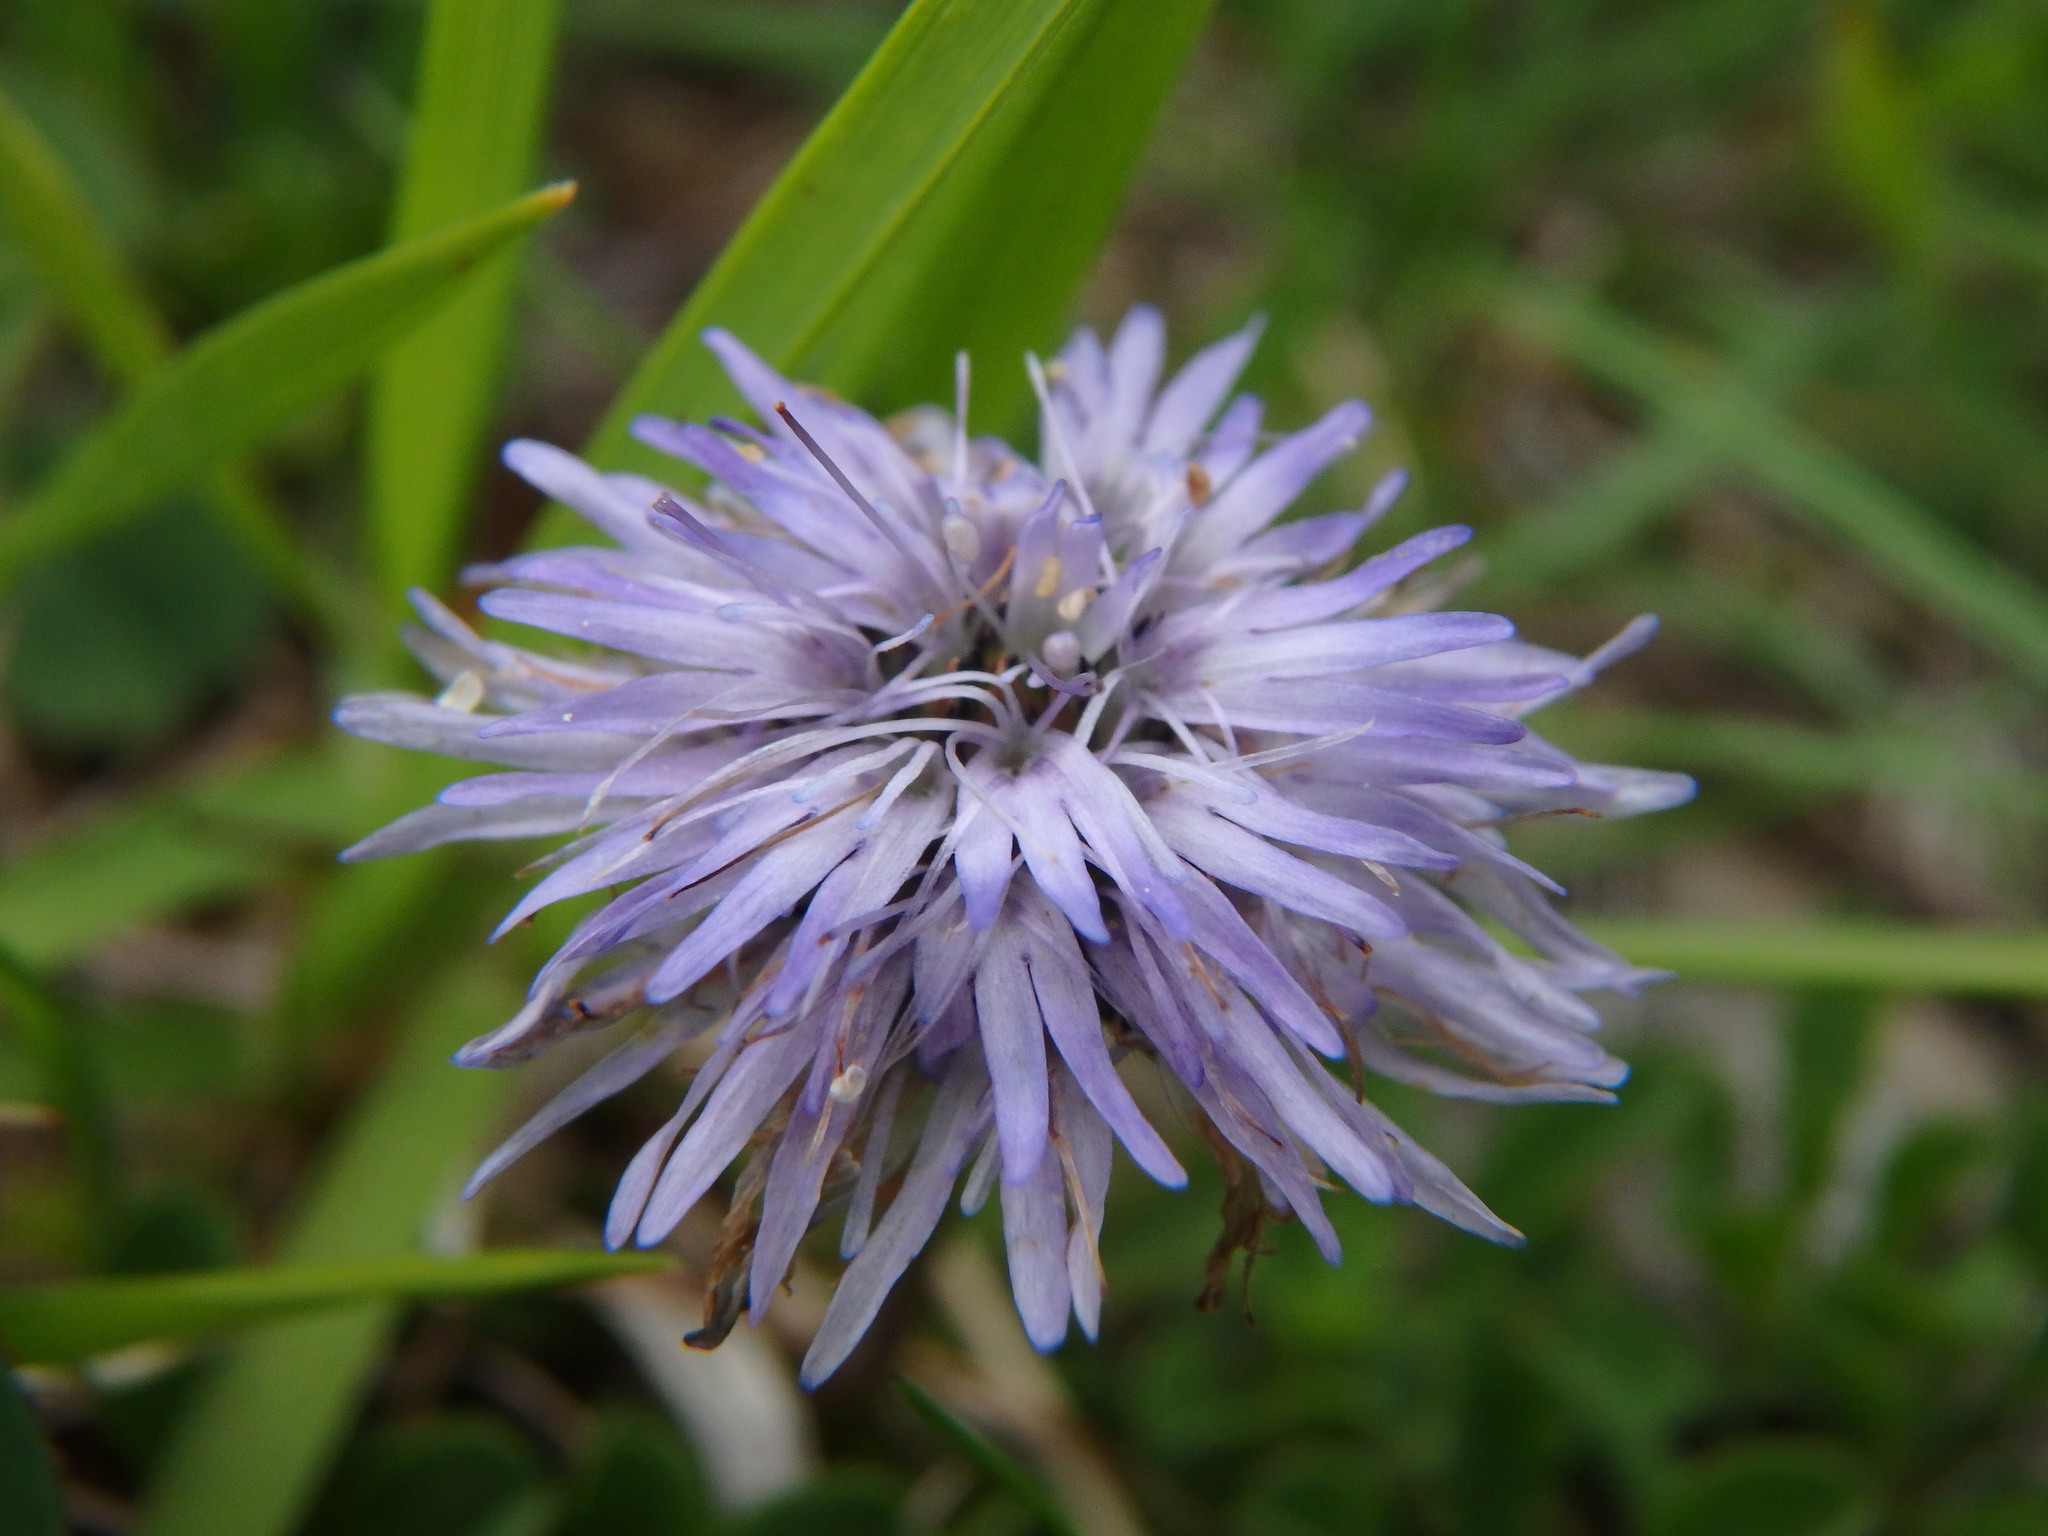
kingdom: Plantae
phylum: Tracheophyta
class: Magnoliopsida
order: Lamiales
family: Plantaginaceae
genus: Globularia
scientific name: Globularia cordifolia
